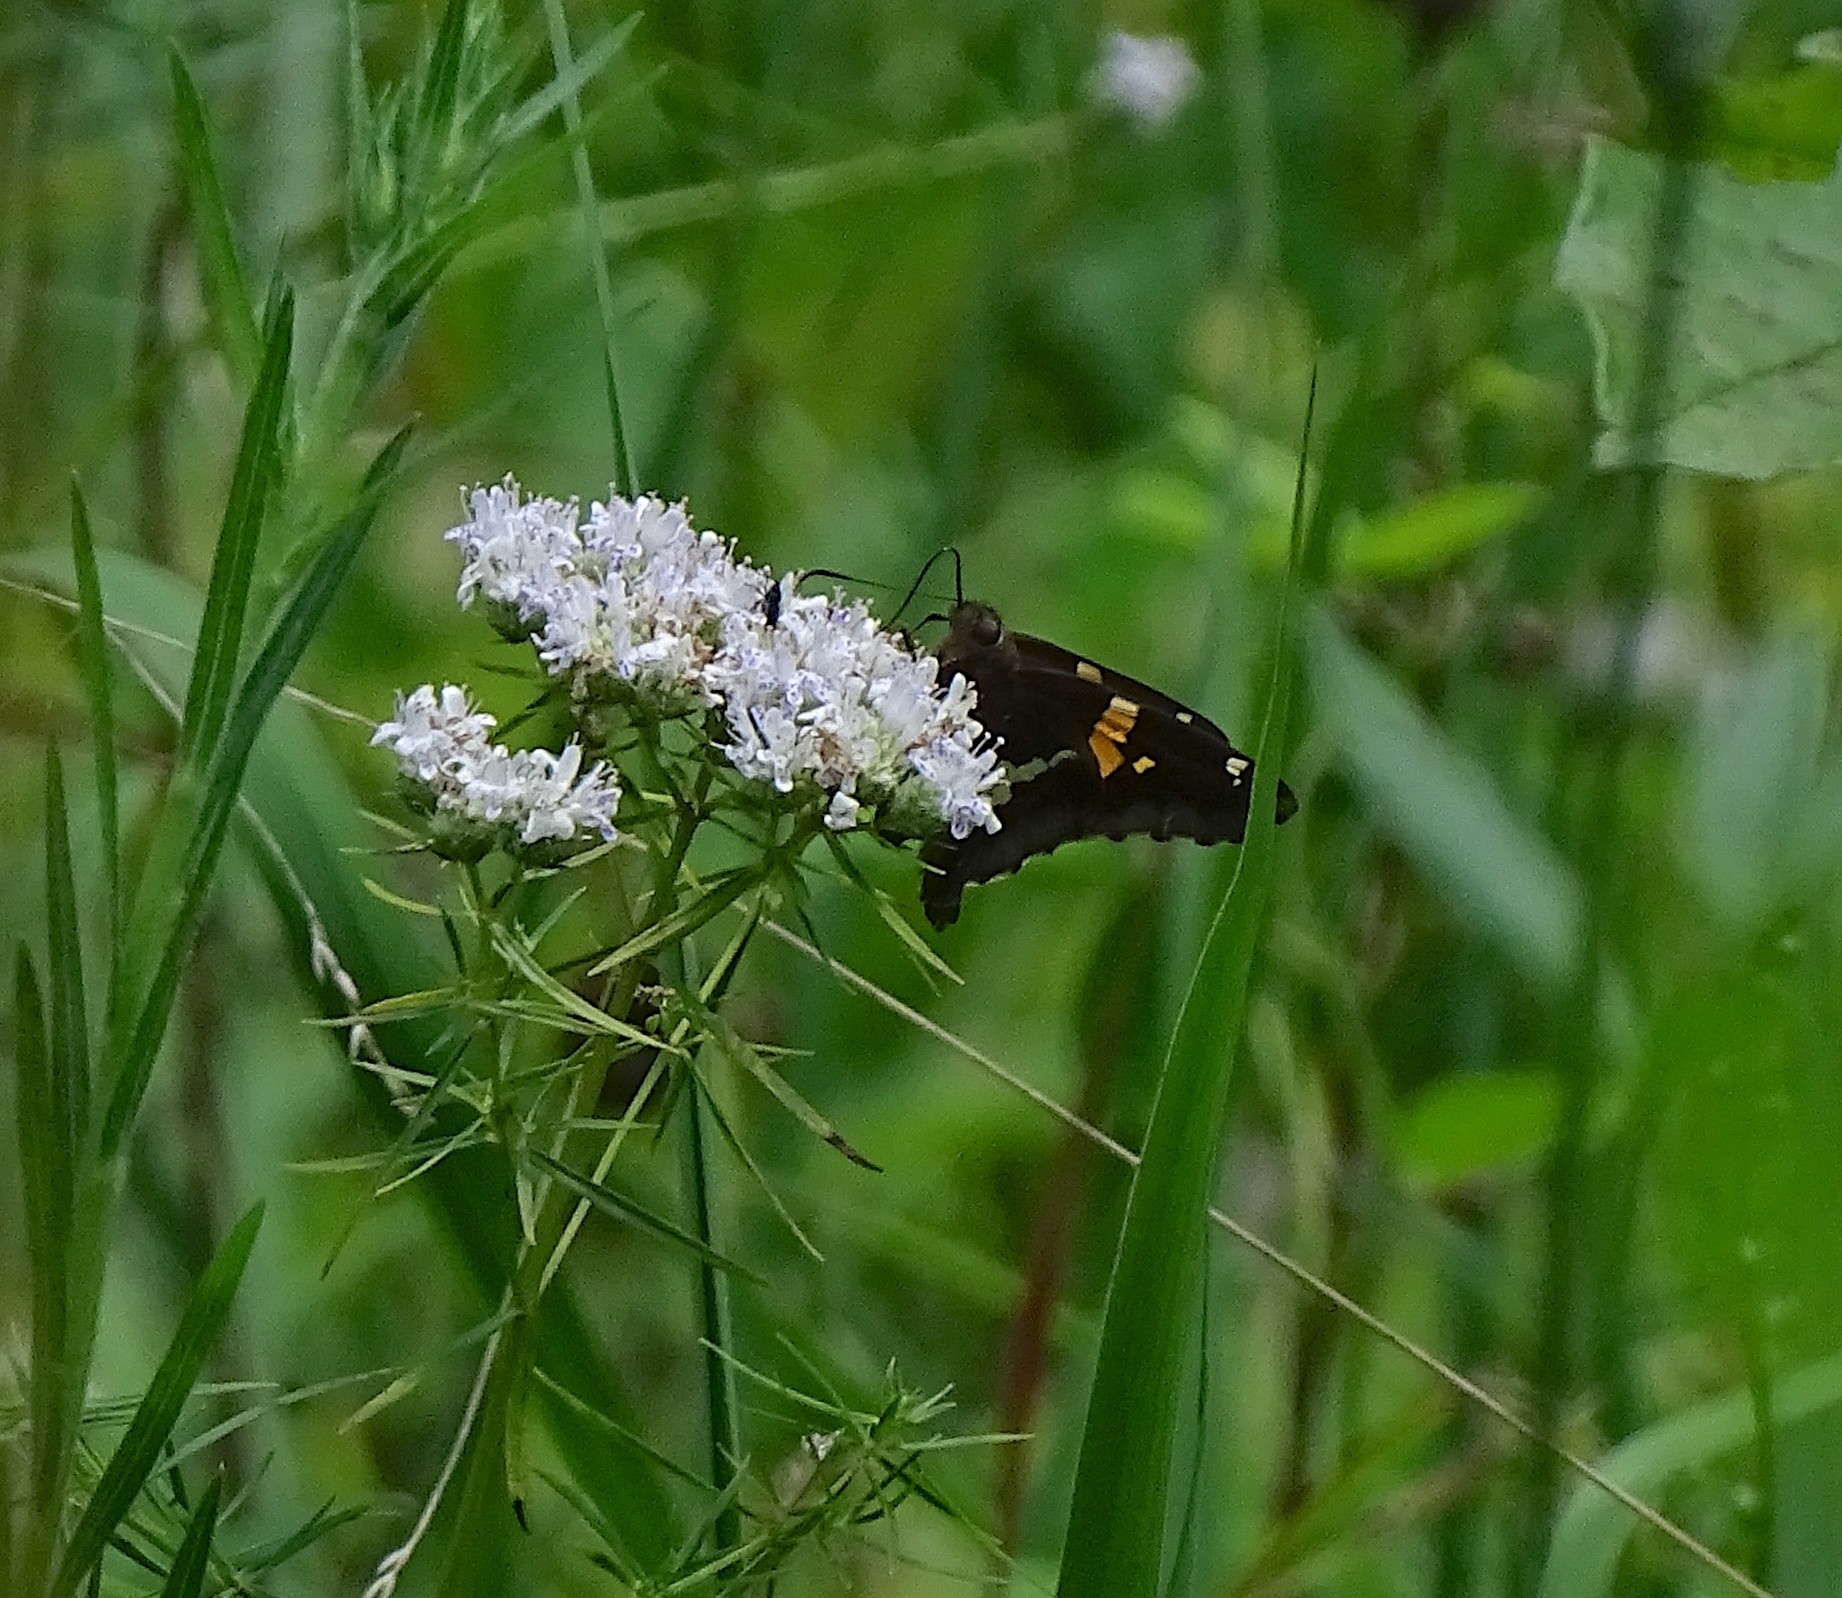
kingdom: Animalia
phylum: Arthropoda
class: Insecta
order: Lepidoptera
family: Hesperiidae
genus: Epargyreus
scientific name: Epargyreus clarus
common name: Silver-spotted skipper
